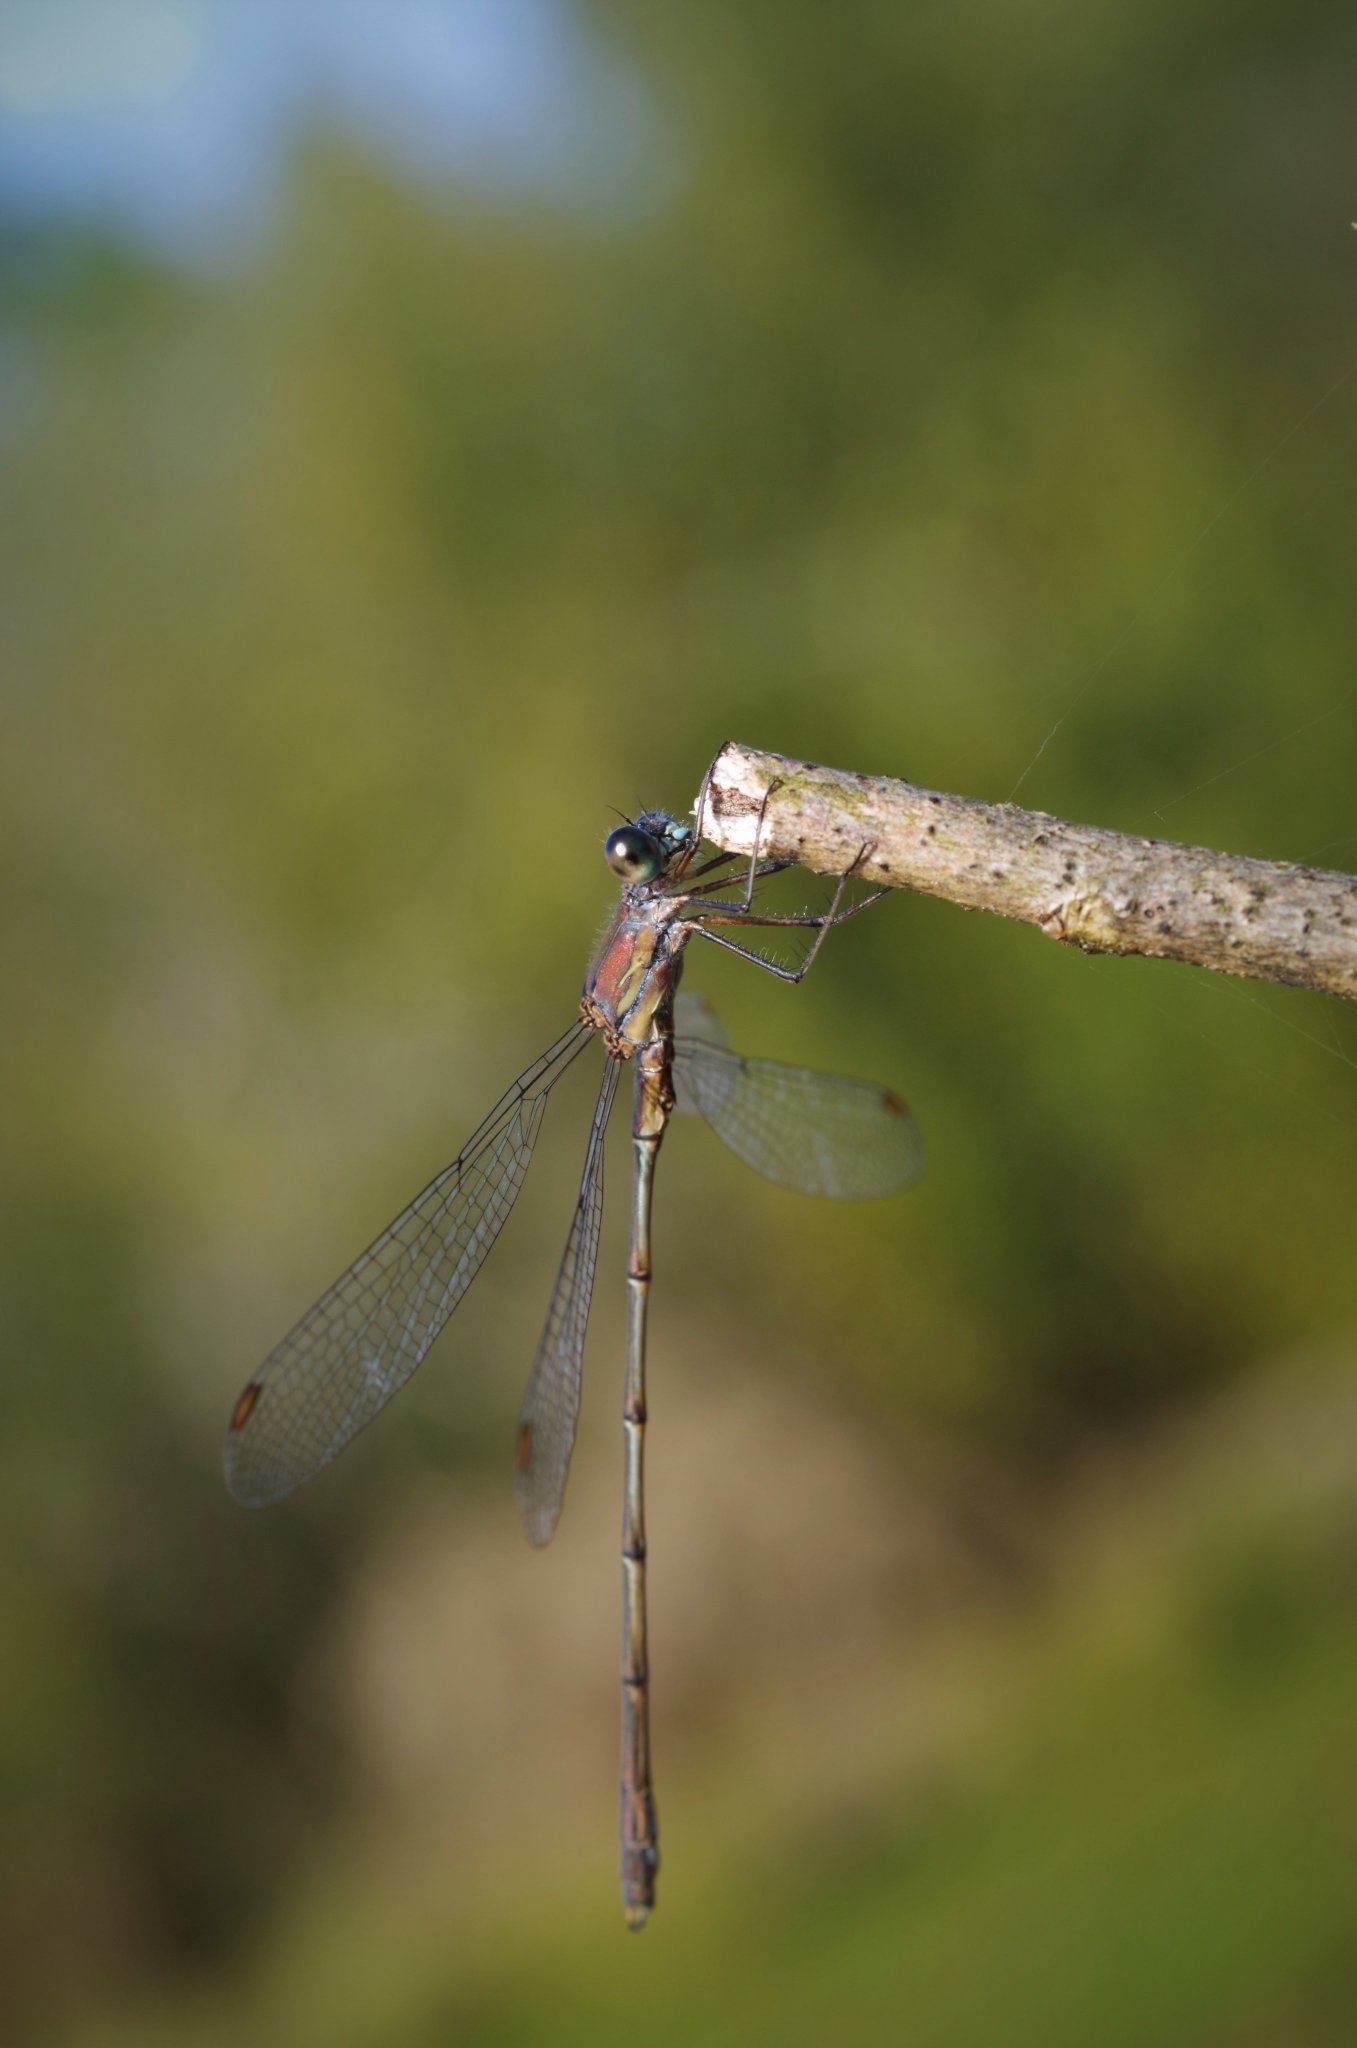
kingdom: Animalia
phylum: Arthropoda
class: Insecta
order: Odonata
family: Lestidae
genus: Chalcolestes
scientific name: Chalcolestes viridis
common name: Green emerald damselfly
